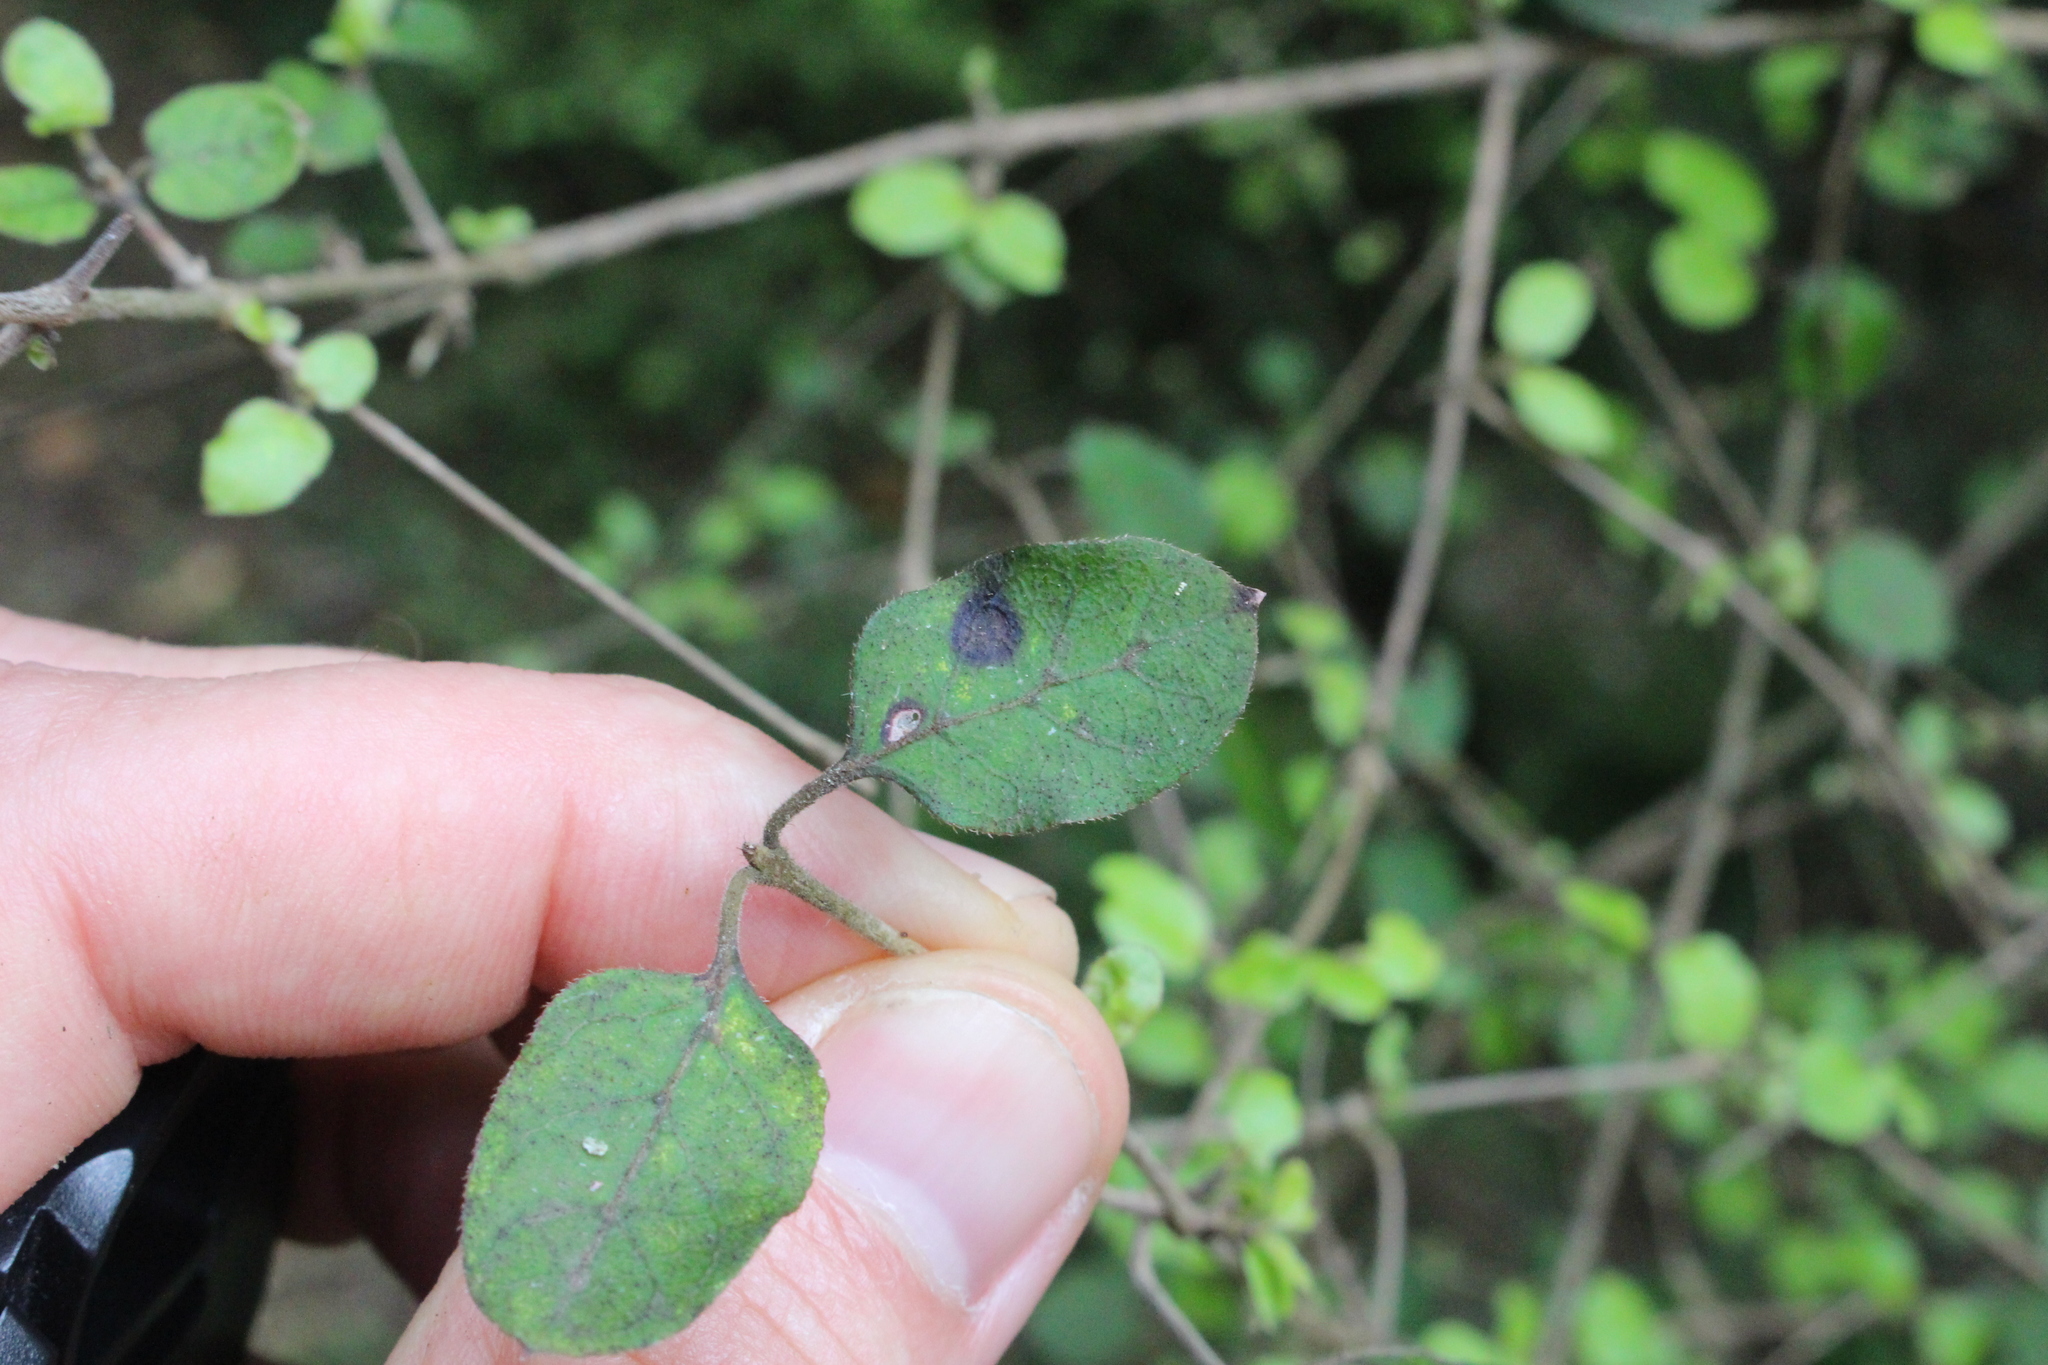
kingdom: Plantae
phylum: Tracheophyta
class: Magnoliopsida
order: Gentianales
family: Rubiaceae
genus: Coprosma
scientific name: Coprosma rotundifolia
